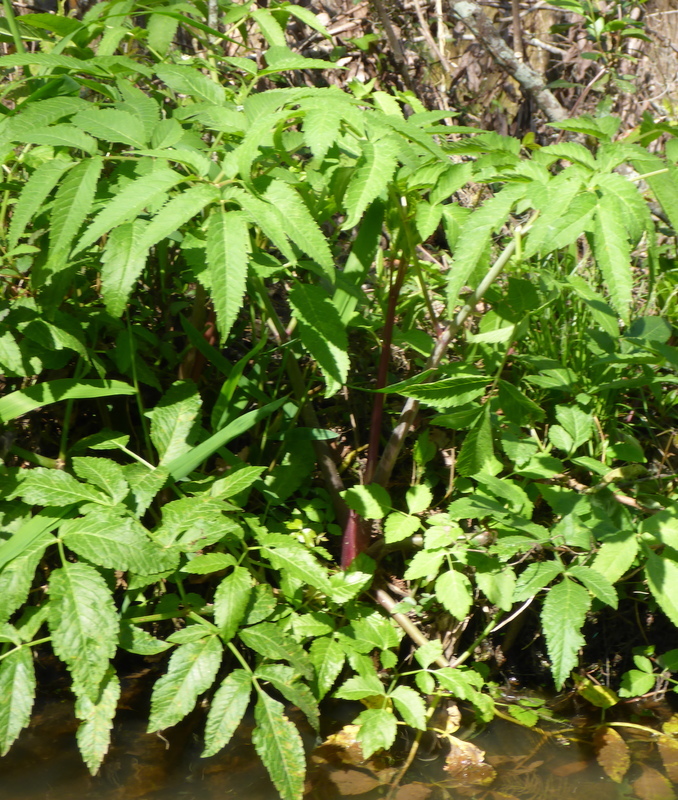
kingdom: Plantae
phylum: Tracheophyta
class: Magnoliopsida
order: Apiales
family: Apiaceae
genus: Cicuta
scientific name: Cicuta maculata
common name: Spotted cowbane
